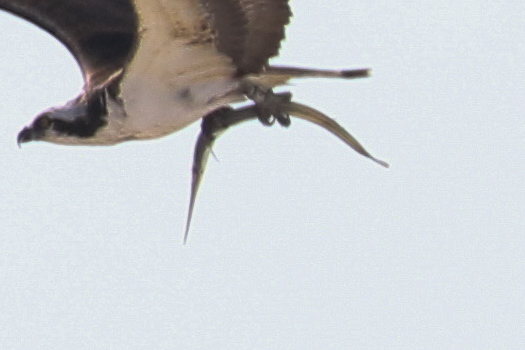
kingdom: Animalia
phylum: Chordata
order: Beloniformes
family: Belonidae
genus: Strongylura
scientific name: Strongylura marina
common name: Atlantic needlefish
